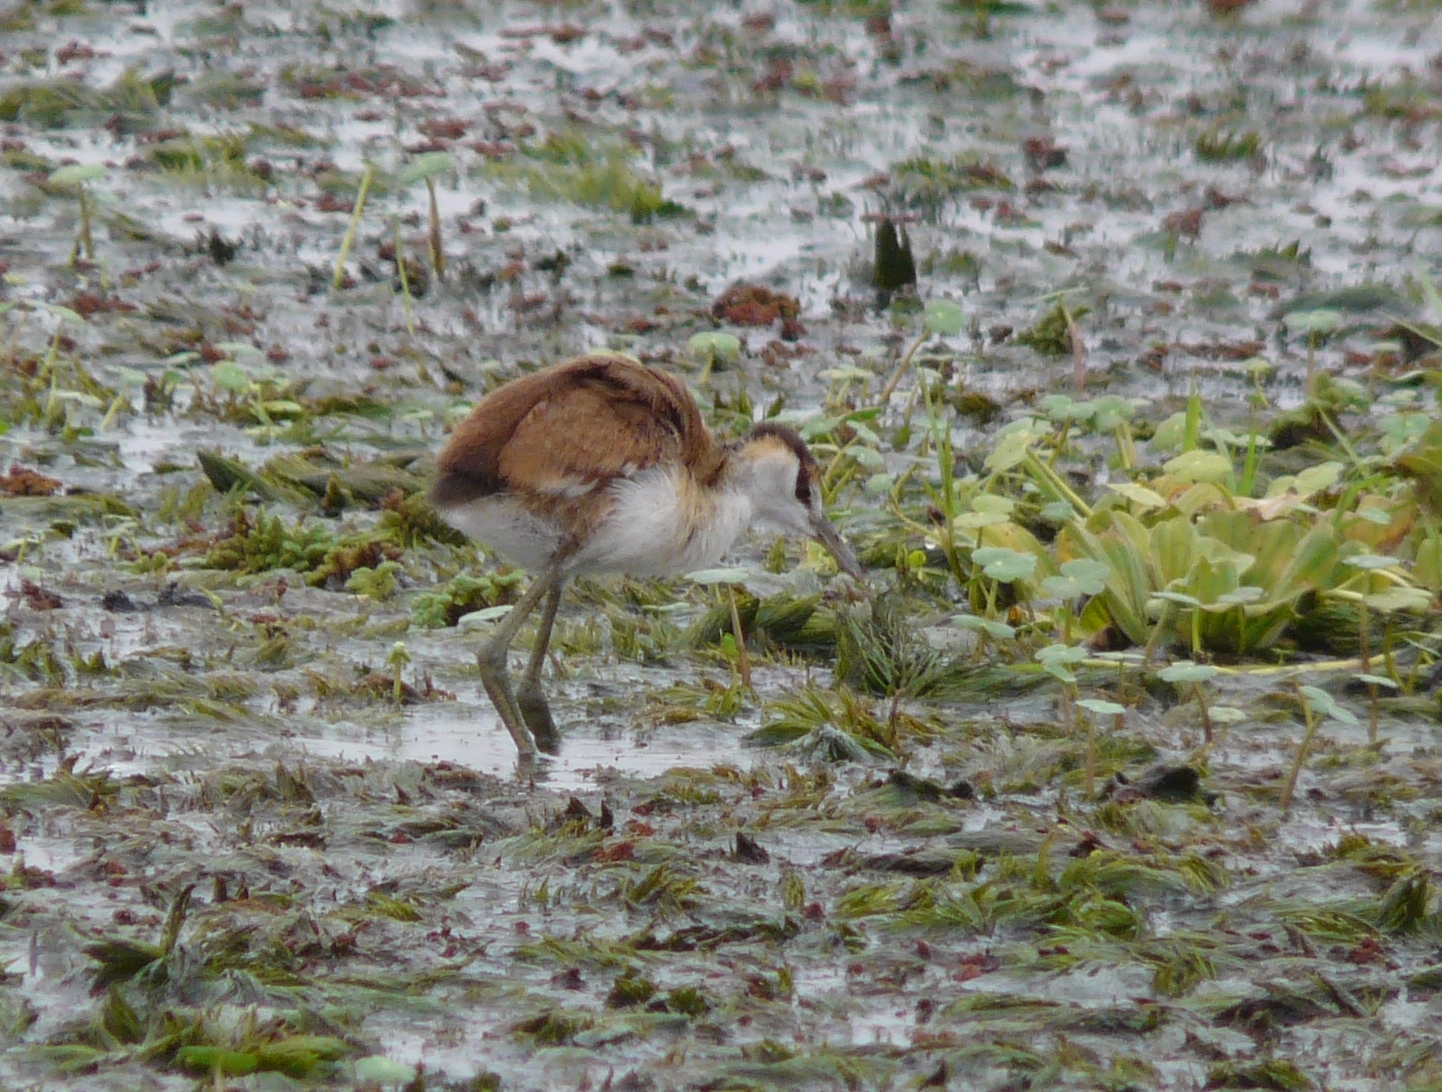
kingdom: Animalia
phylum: Chordata
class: Aves
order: Charadriiformes
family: Jacanidae
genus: Actophilornis
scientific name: Actophilornis africanus
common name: African jacana
